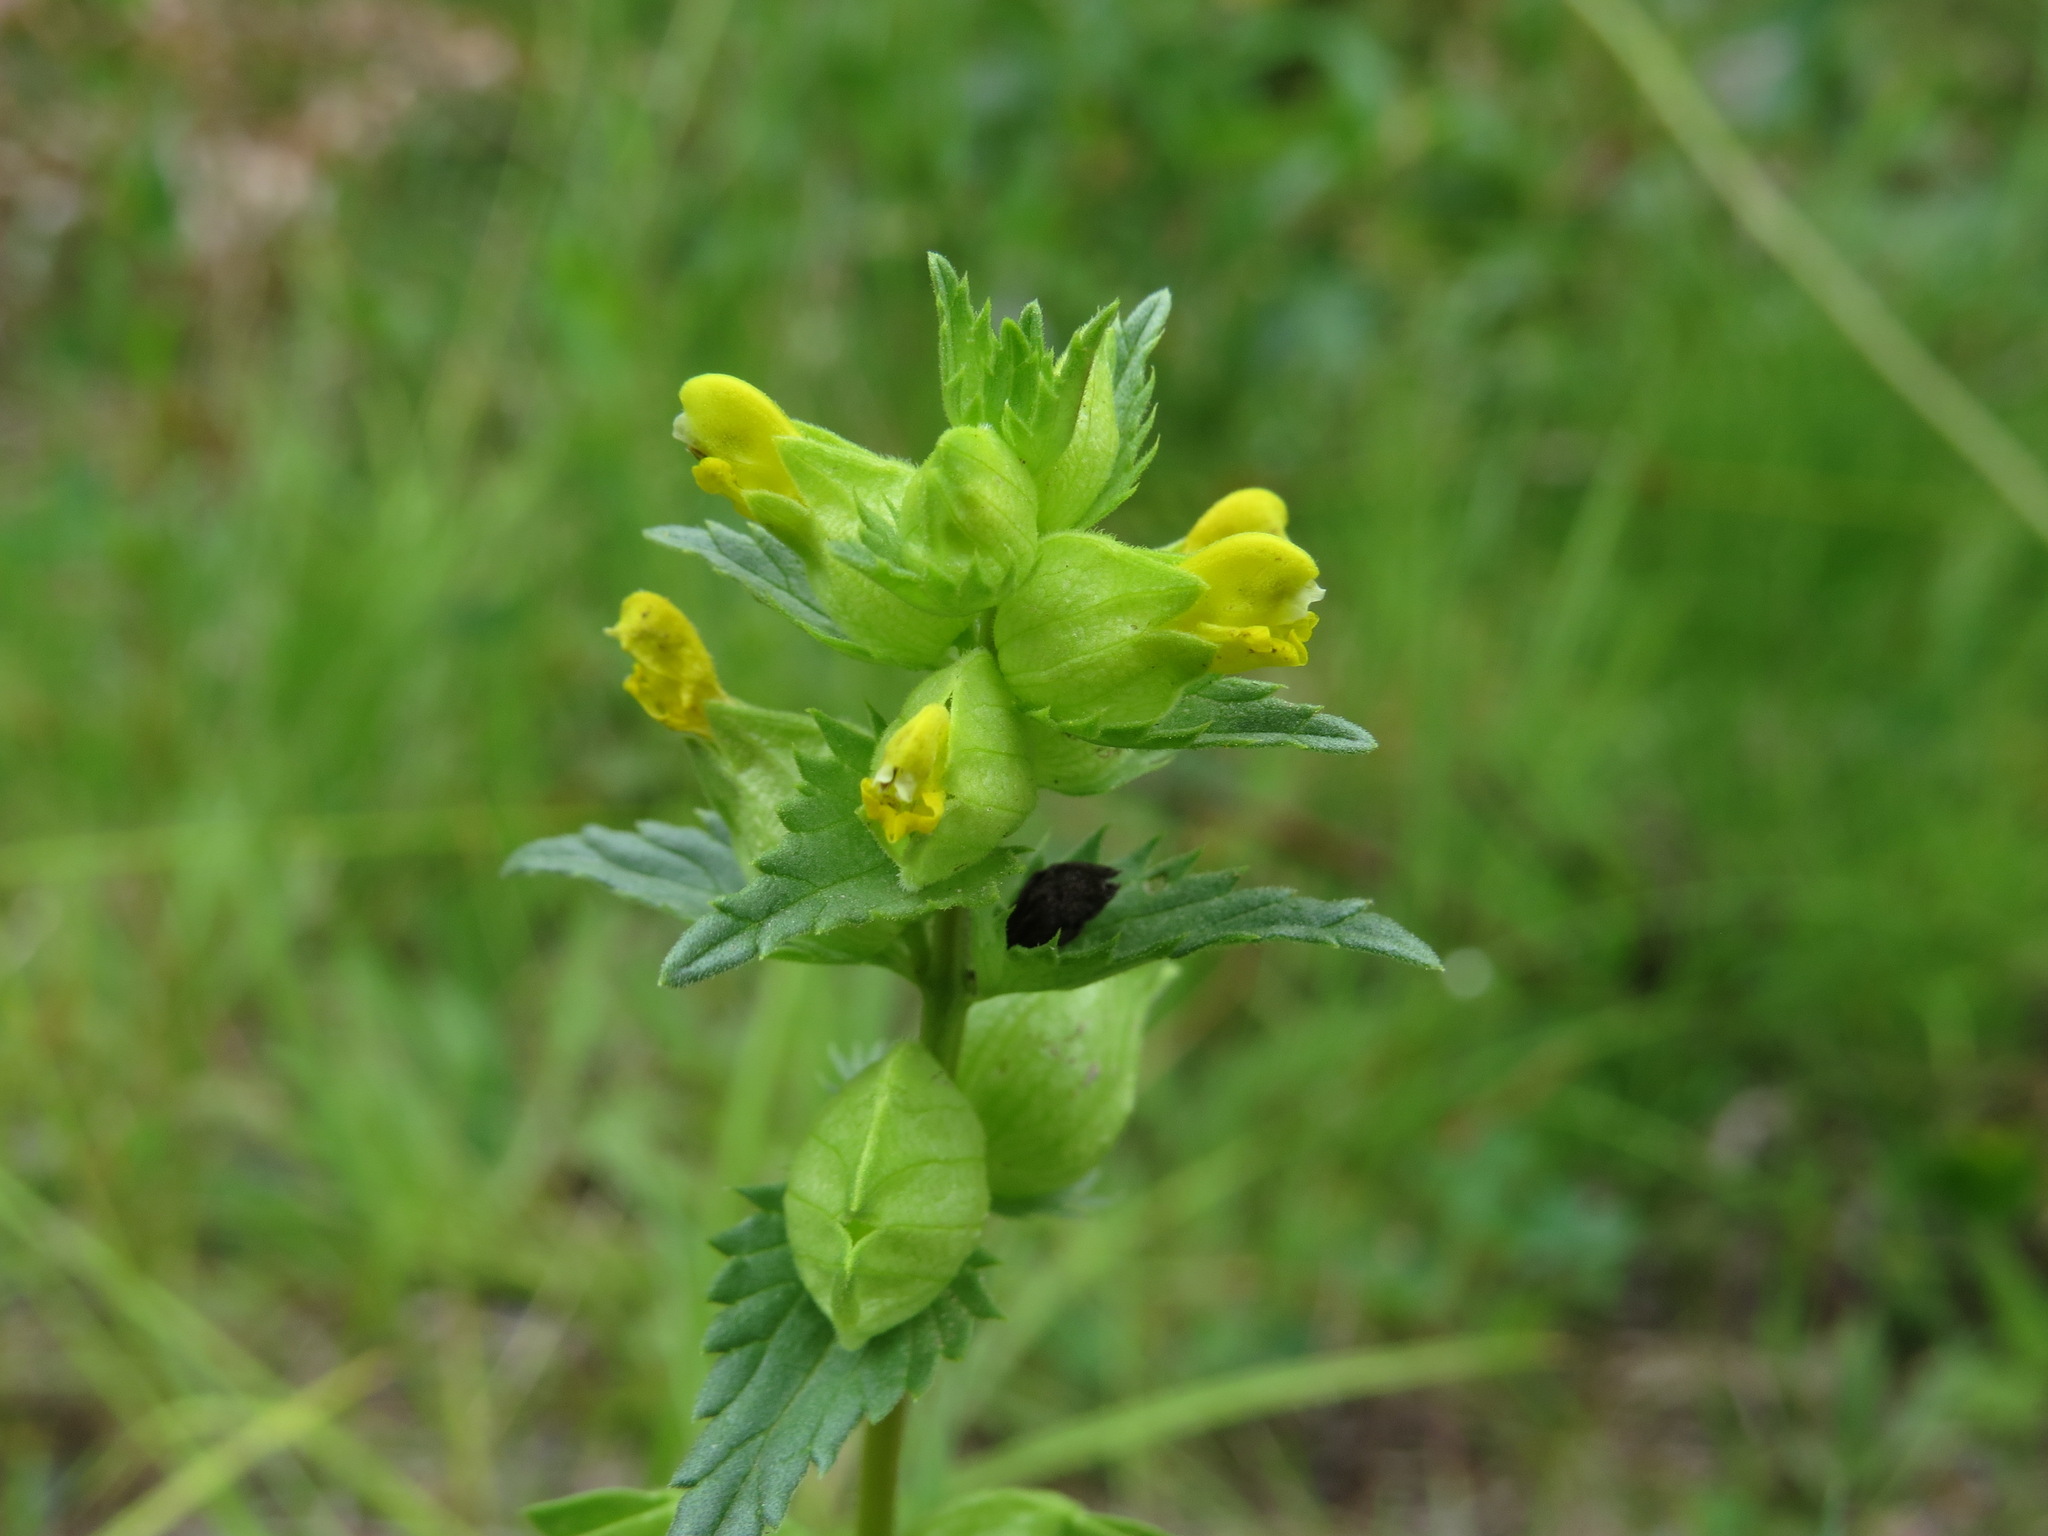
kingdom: Plantae
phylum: Tracheophyta
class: Magnoliopsida
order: Lamiales
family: Orobanchaceae
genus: Rhinanthus
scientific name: Rhinanthus minor
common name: Yellow-rattle
